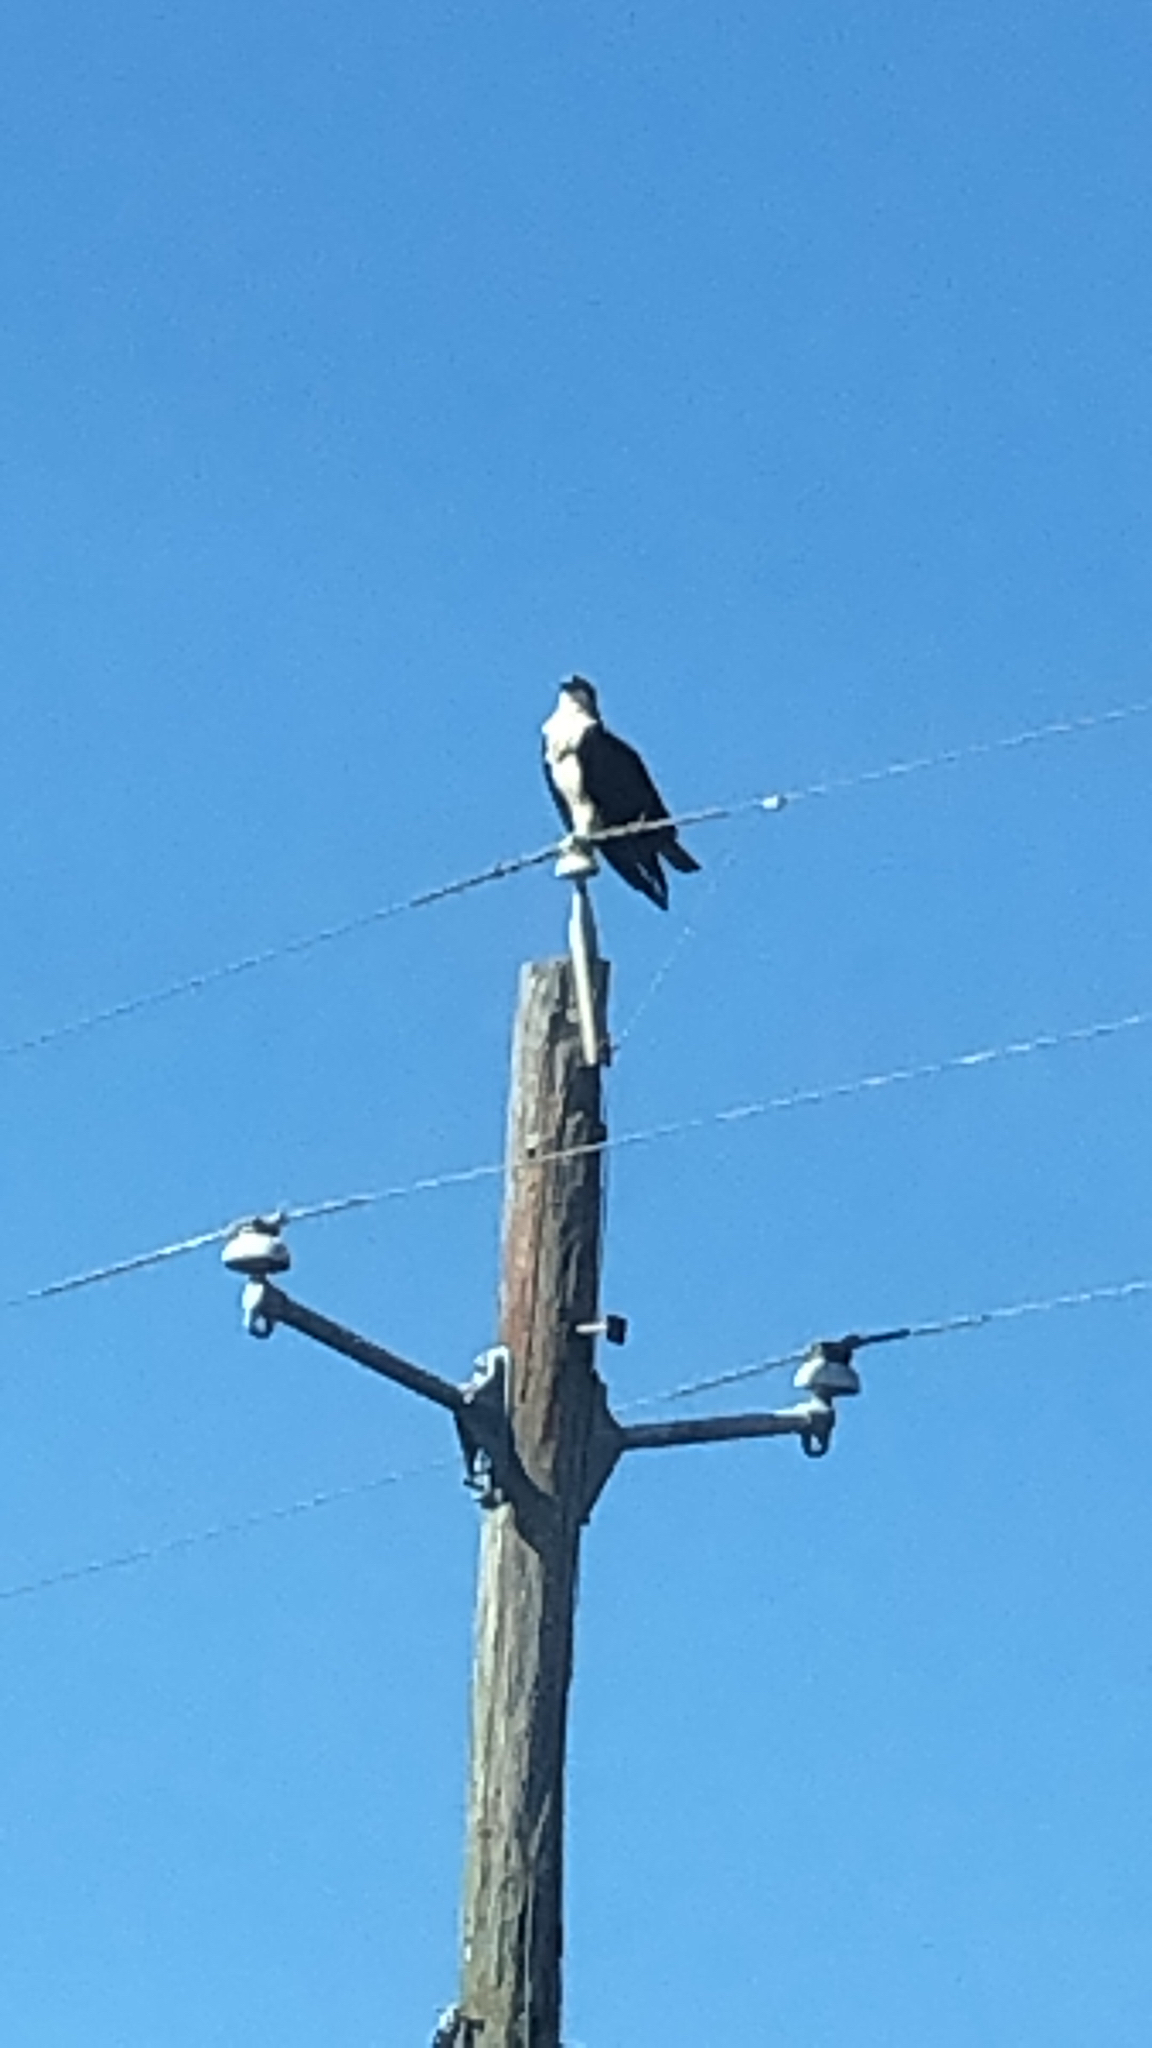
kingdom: Animalia
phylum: Chordata
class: Aves
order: Accipitriformes
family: Pandionidae
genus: Pandion
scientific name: Pandion haliaetus
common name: Osprey
